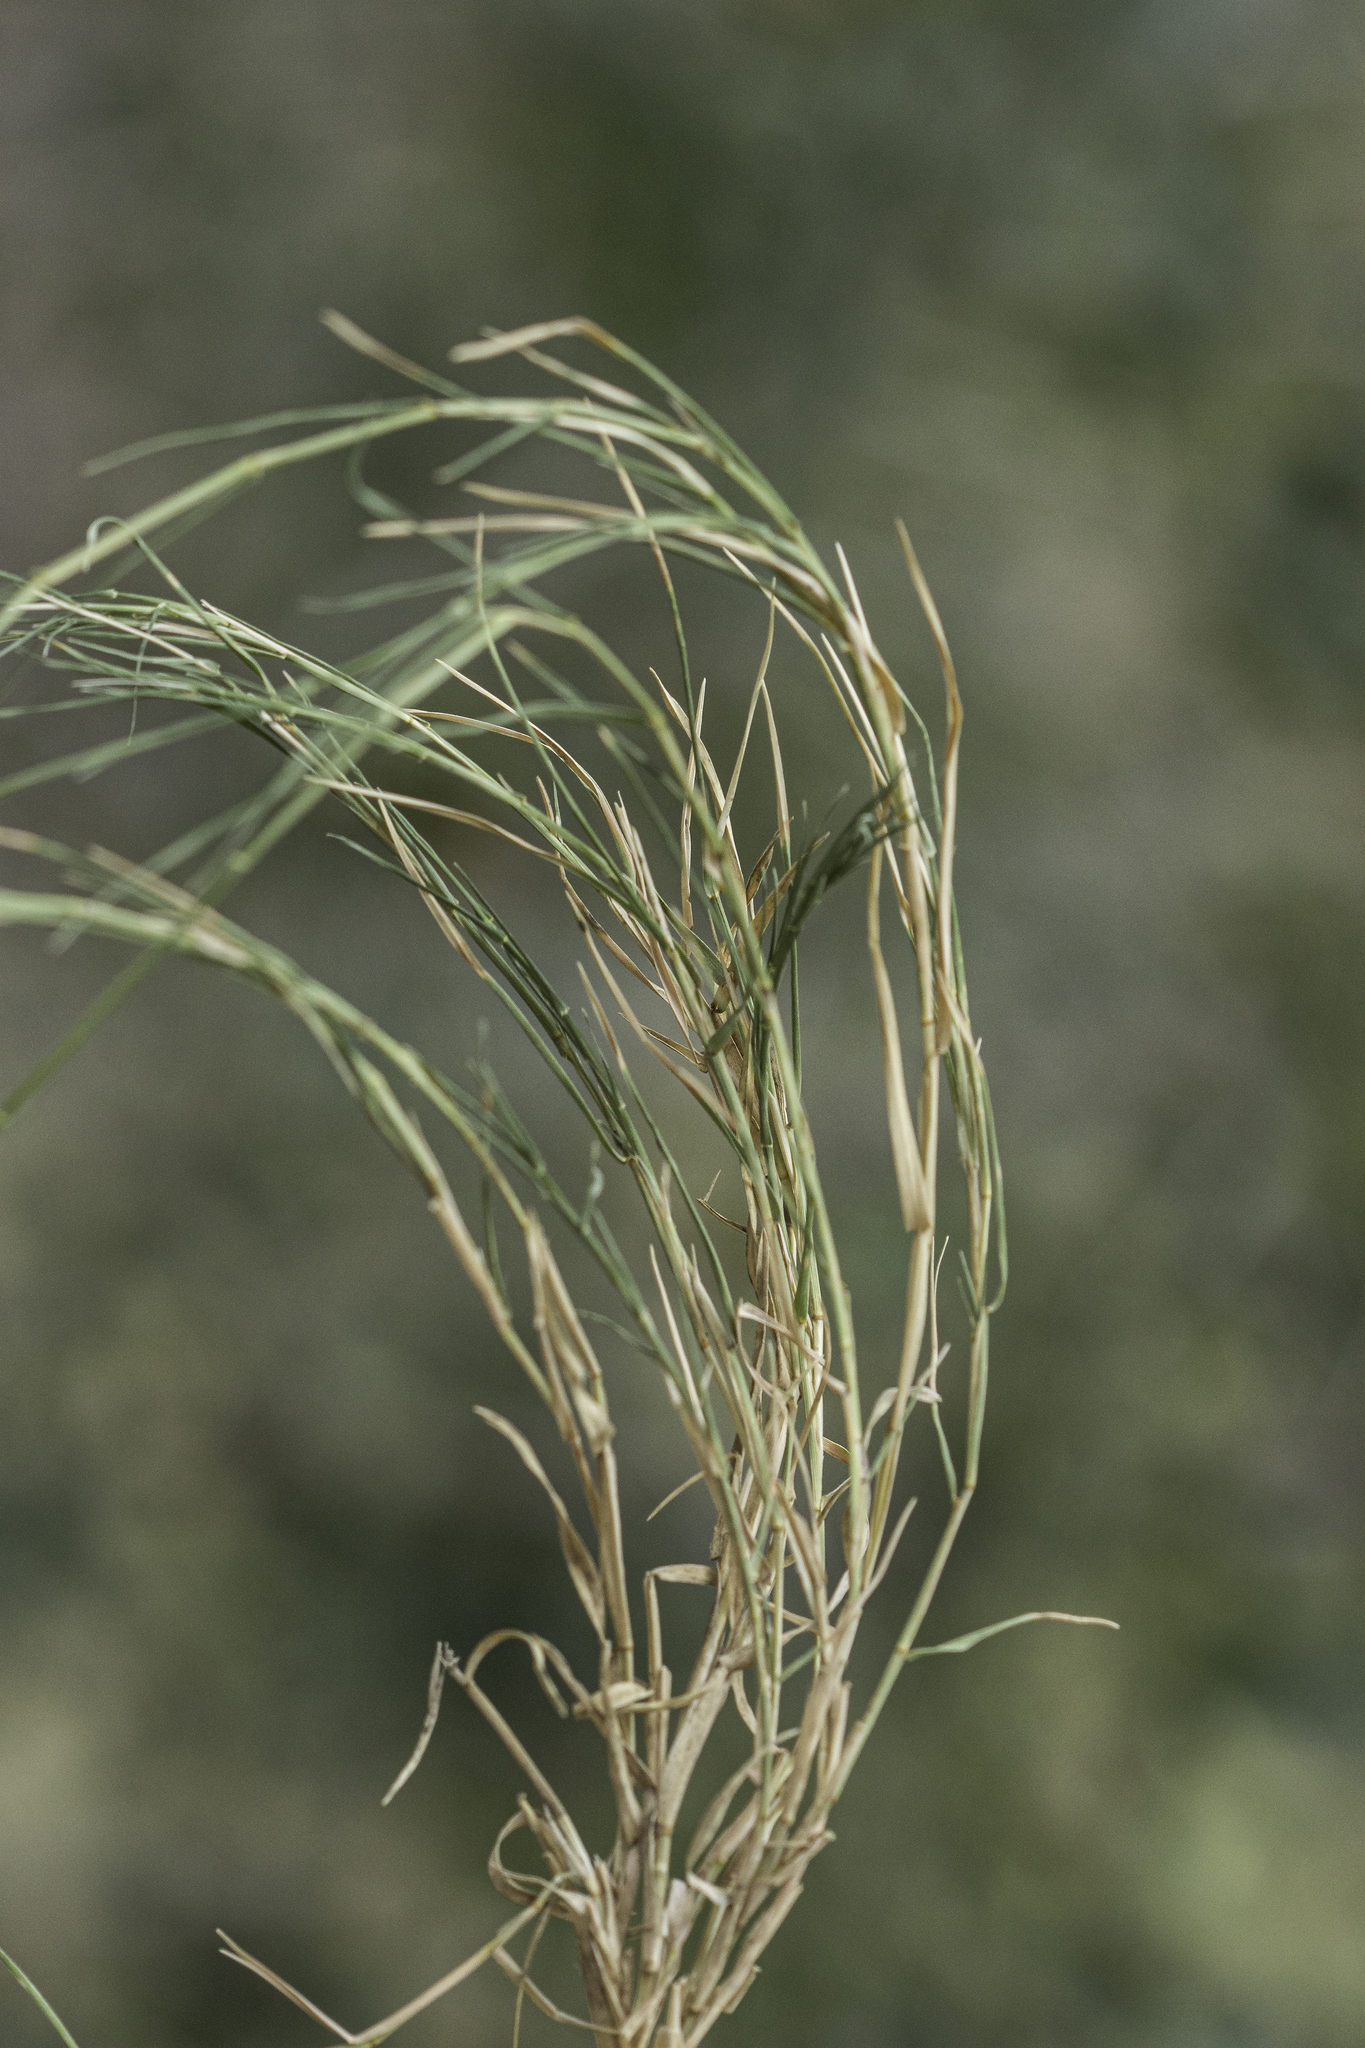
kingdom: Plantae
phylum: Tracheophyta
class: Liliopsida
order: Poales
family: Poaceae
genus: Muhlenbergia
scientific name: Muhlenbergia asperifolia
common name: Alkali muhly
